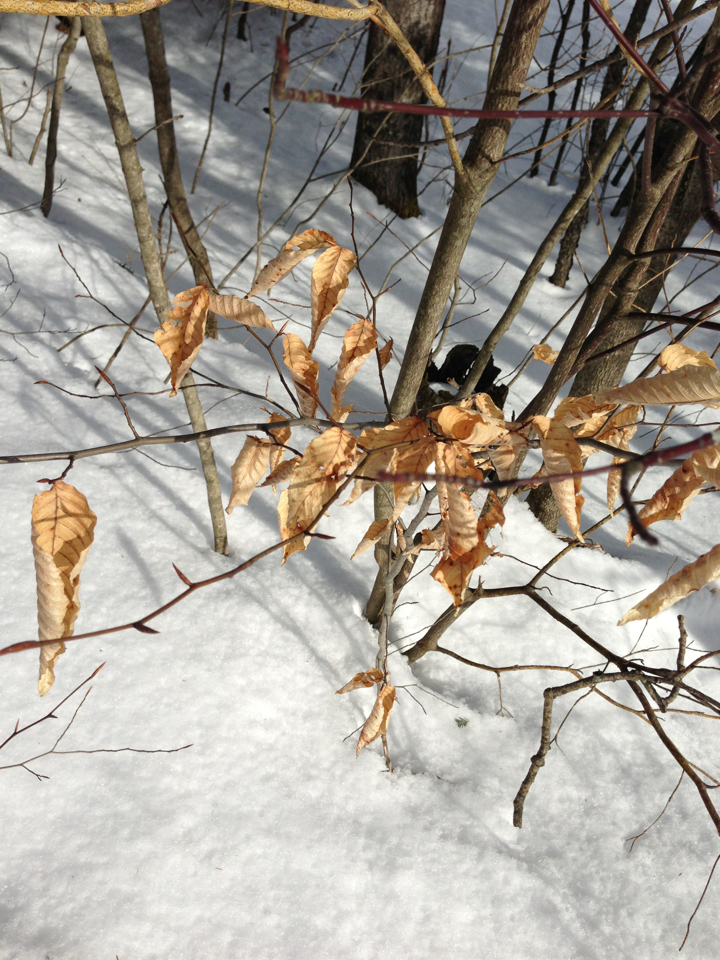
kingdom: Plantae
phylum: Tracheophyta
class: Magnoliopsida
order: Fagales
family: Fagaceae
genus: Fagus
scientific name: Fagus grandifolia
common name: American beech
